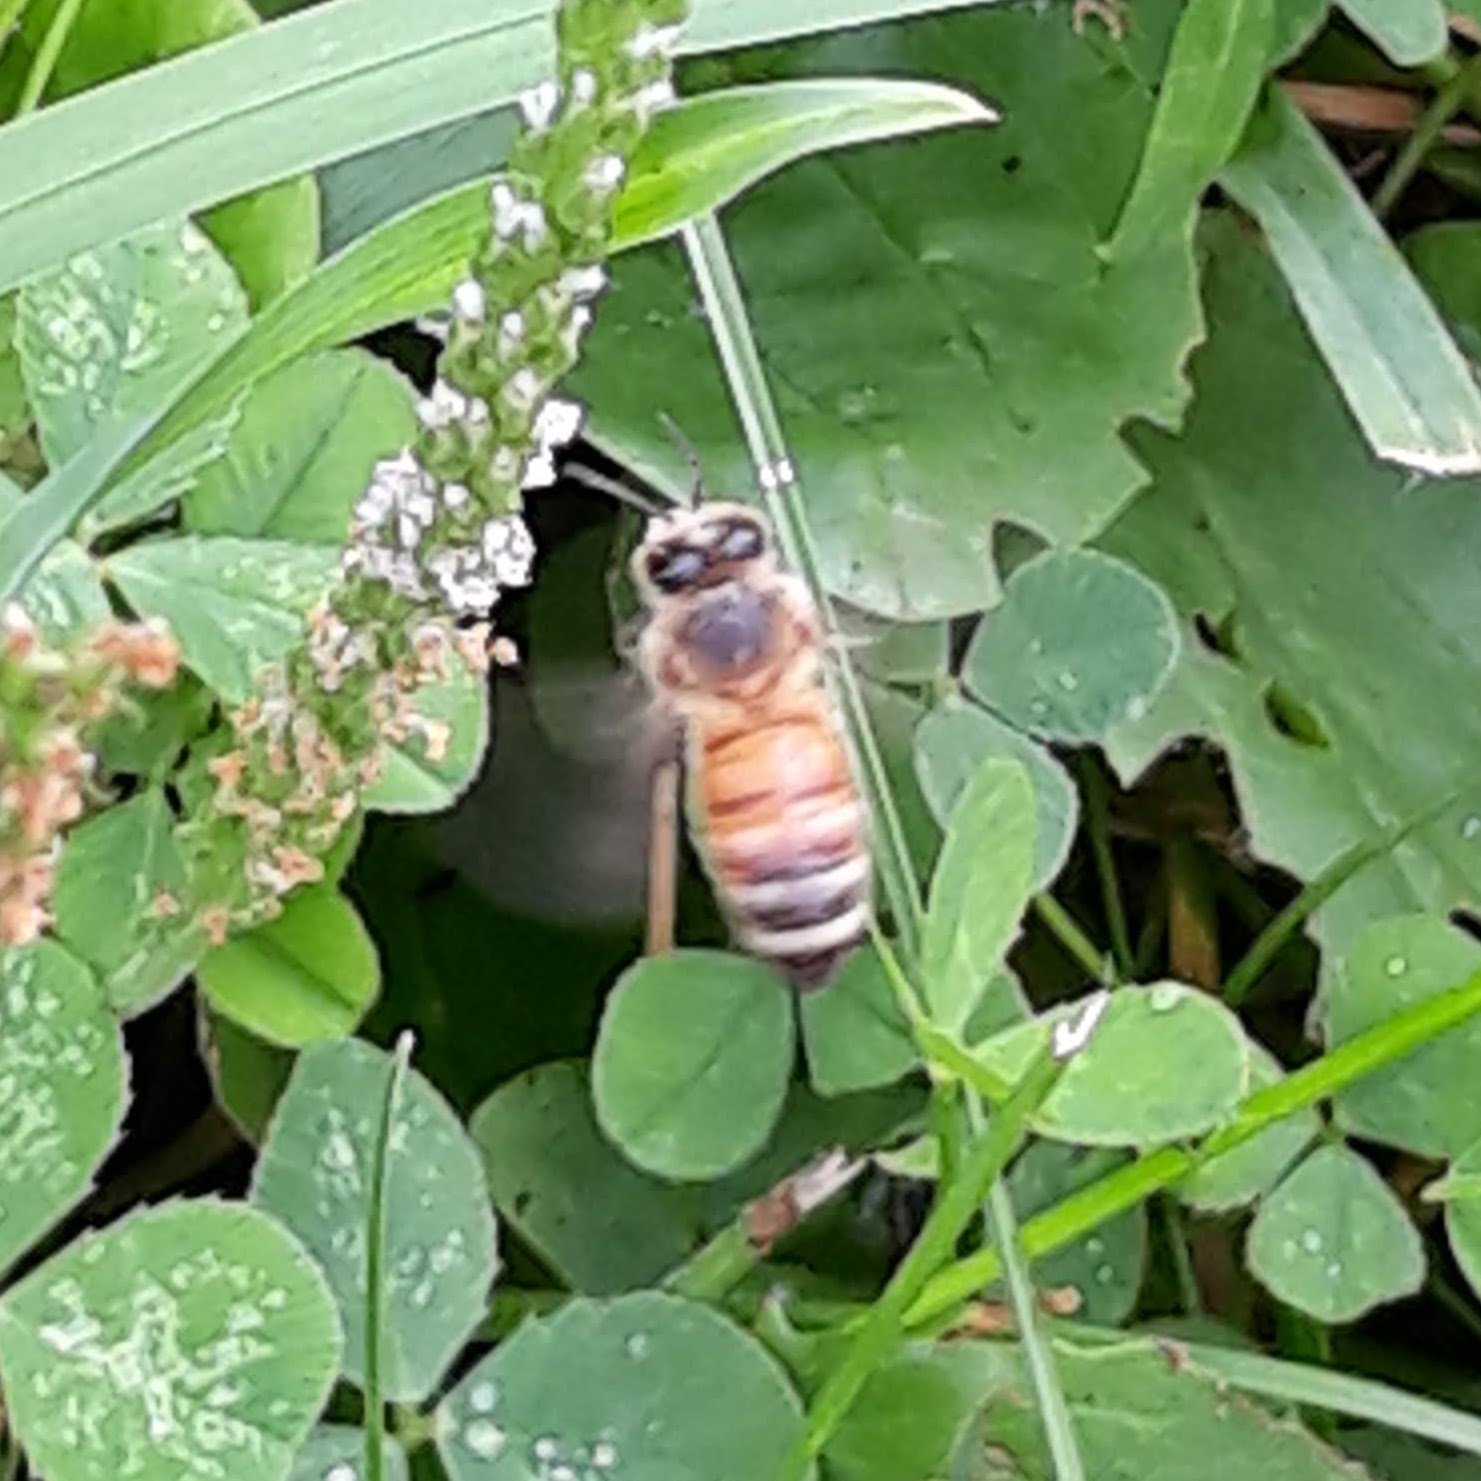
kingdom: Animalia
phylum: Arthropoda
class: Insecta
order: Hymenoptera
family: Apidae
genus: Apis
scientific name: Apis mellifera
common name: Honey bee
